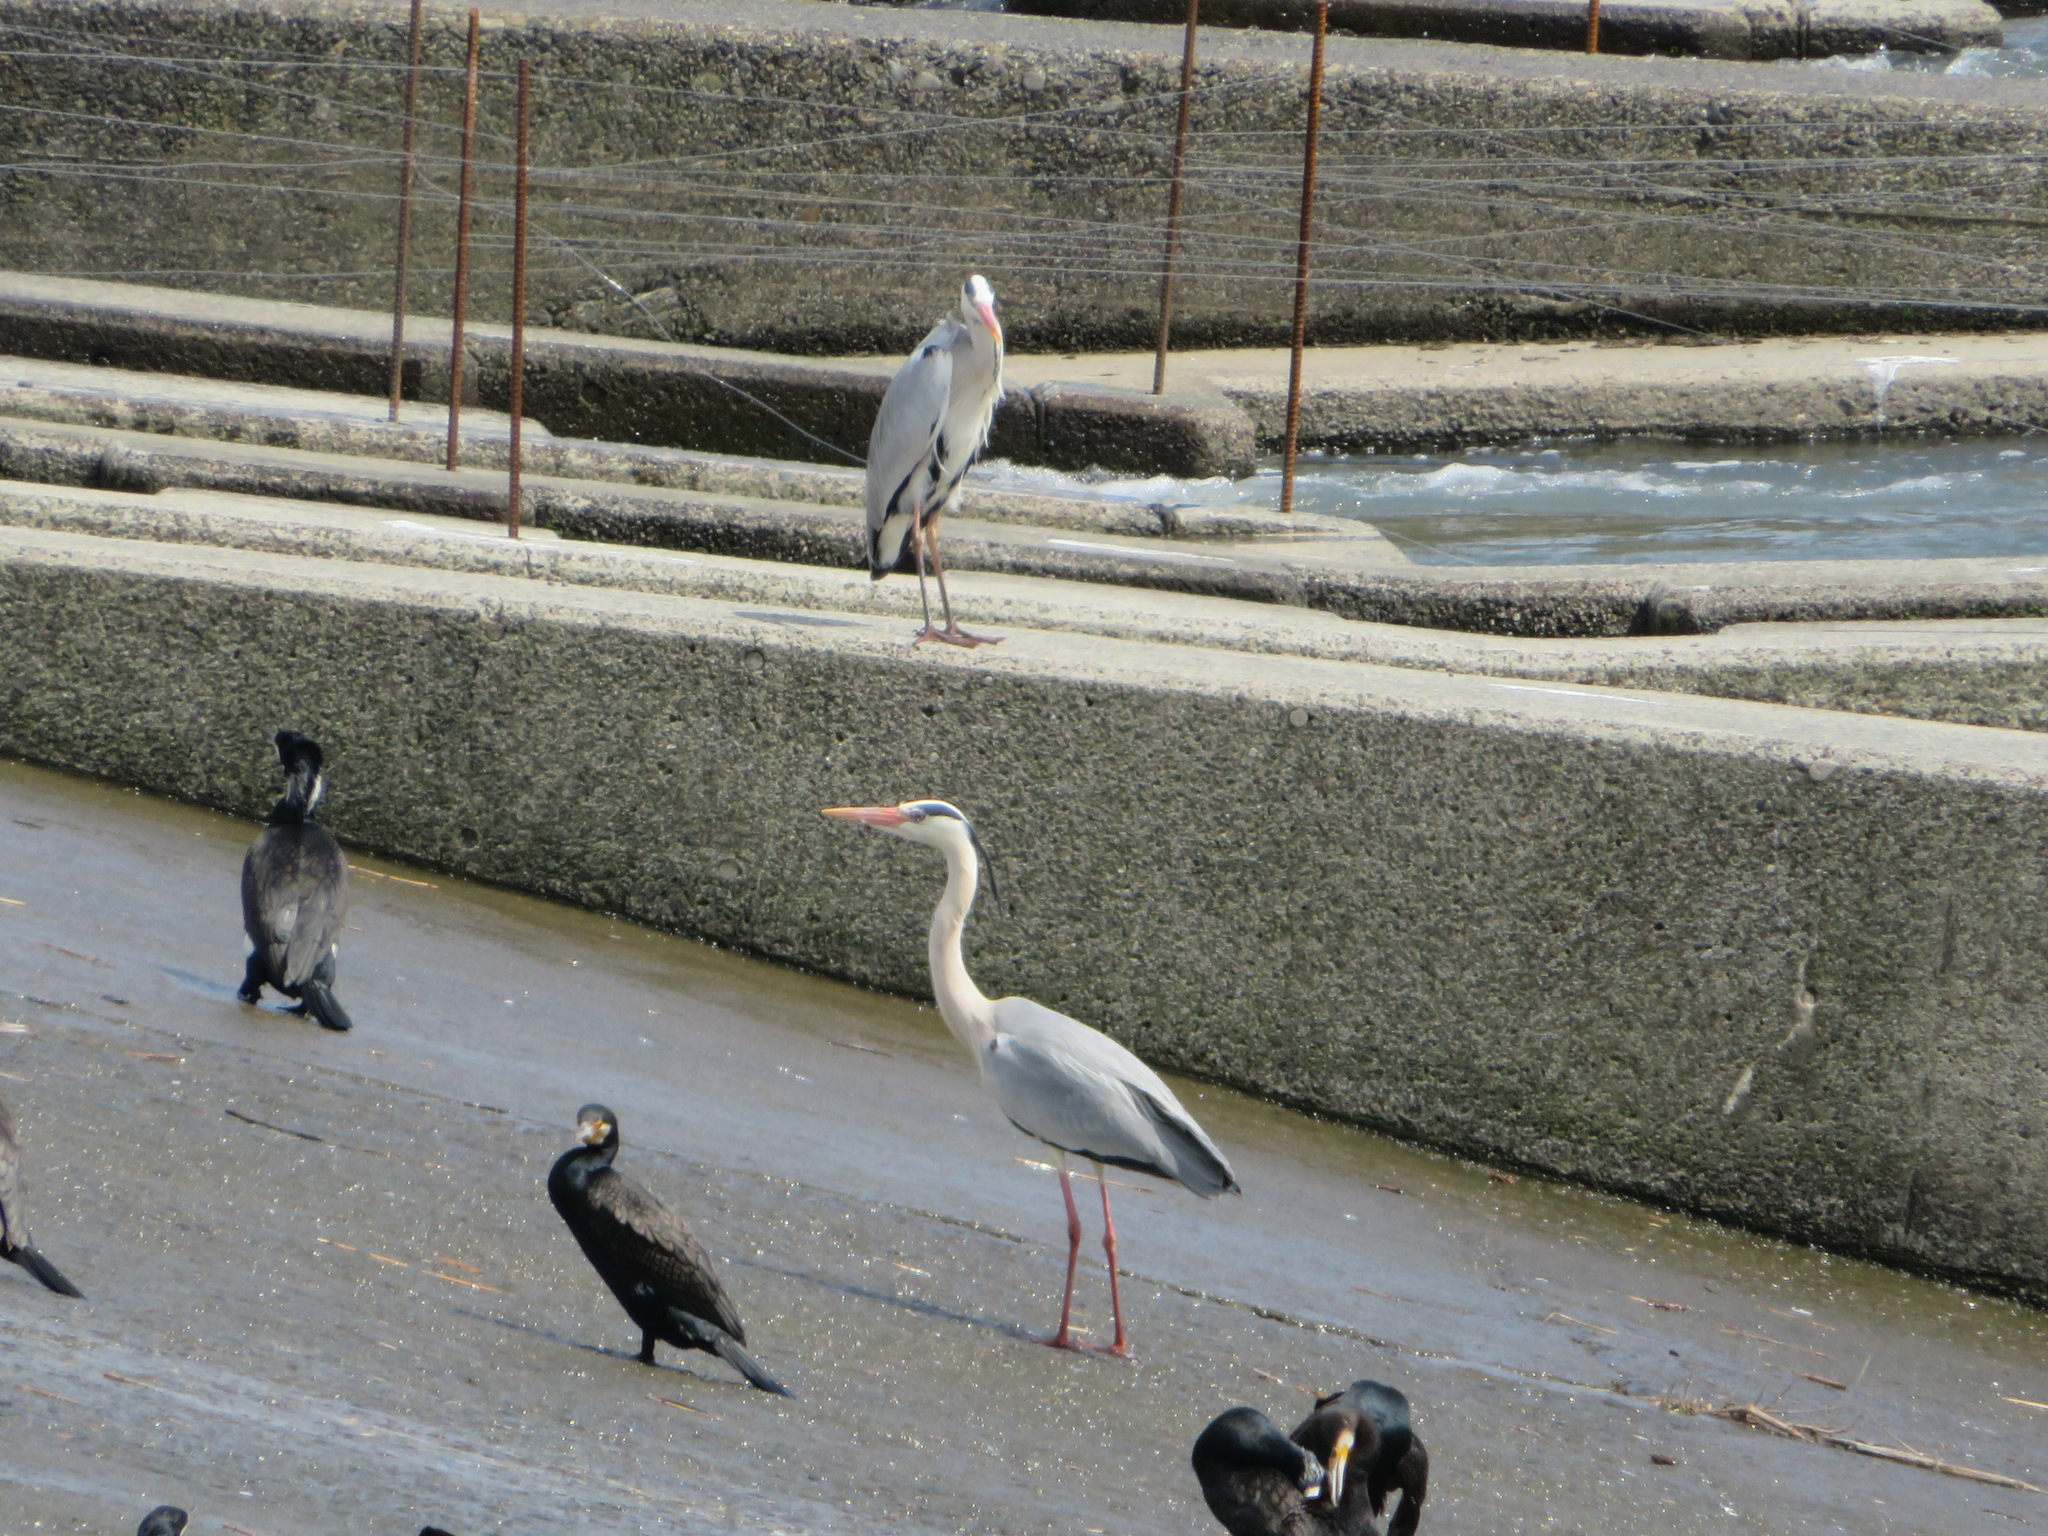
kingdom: Animalia
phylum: Chordata
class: Aves
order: Pelecaniformes
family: Ardeidae
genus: Ardea
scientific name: Ardea cinerea
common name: Grey heron
